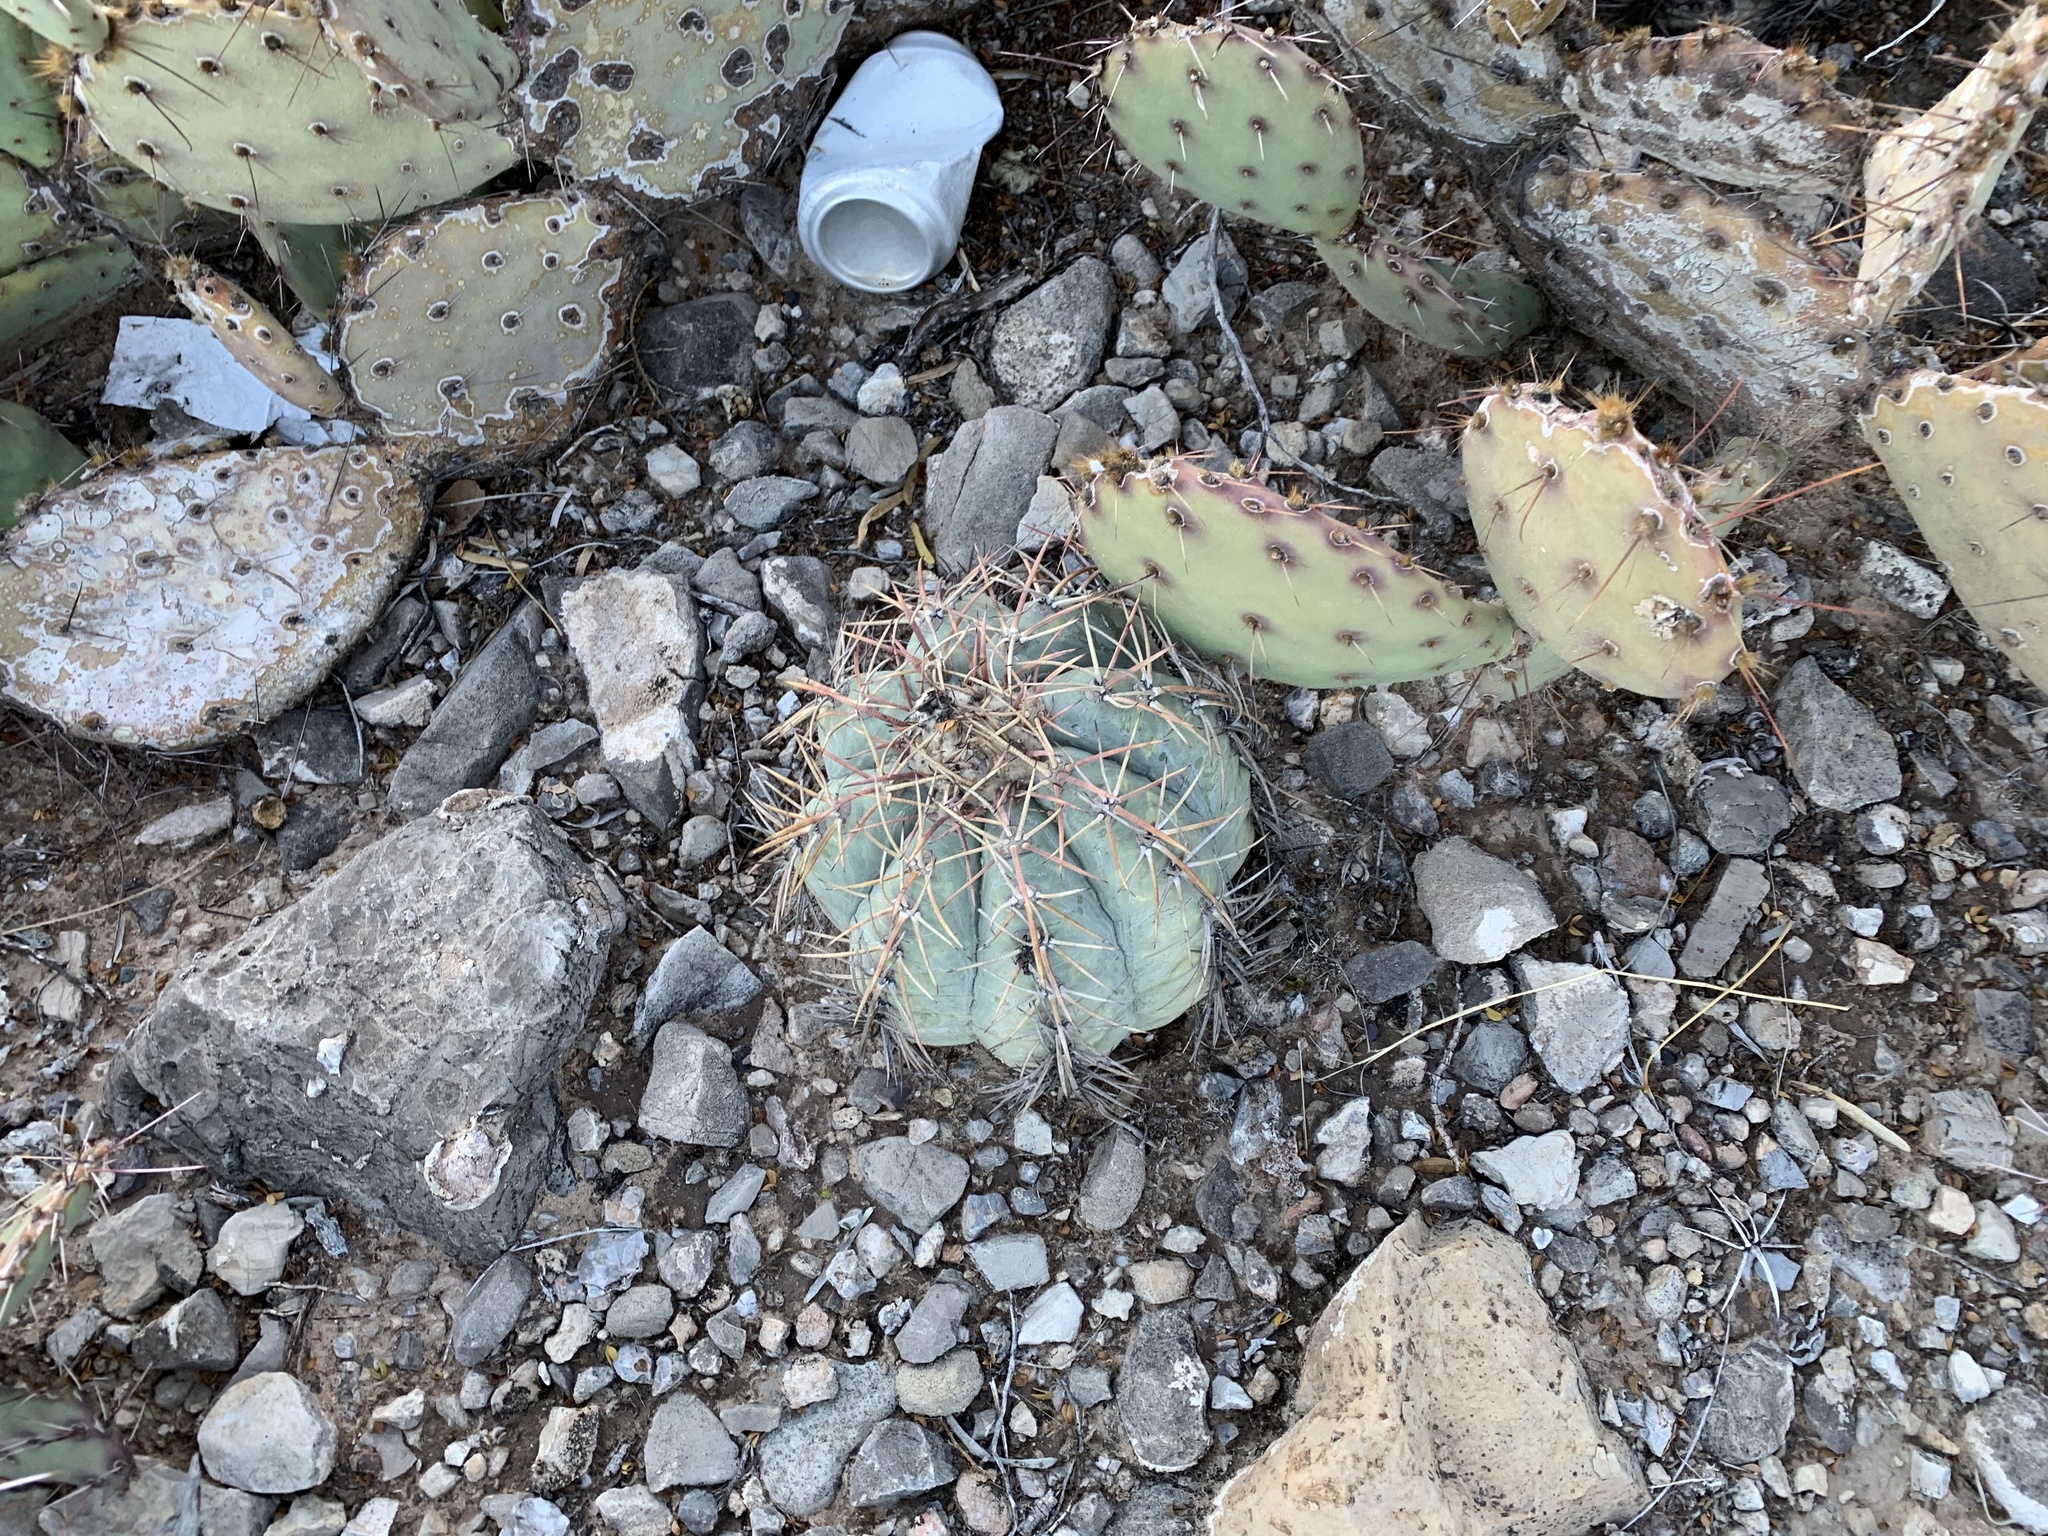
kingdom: Plantae
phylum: Tracheophyta
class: Magnoliopsida
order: Caryophyllales
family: Cactaceae
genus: Echinocactus
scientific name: Echinocactus horizonthalonius
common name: Devilshead
